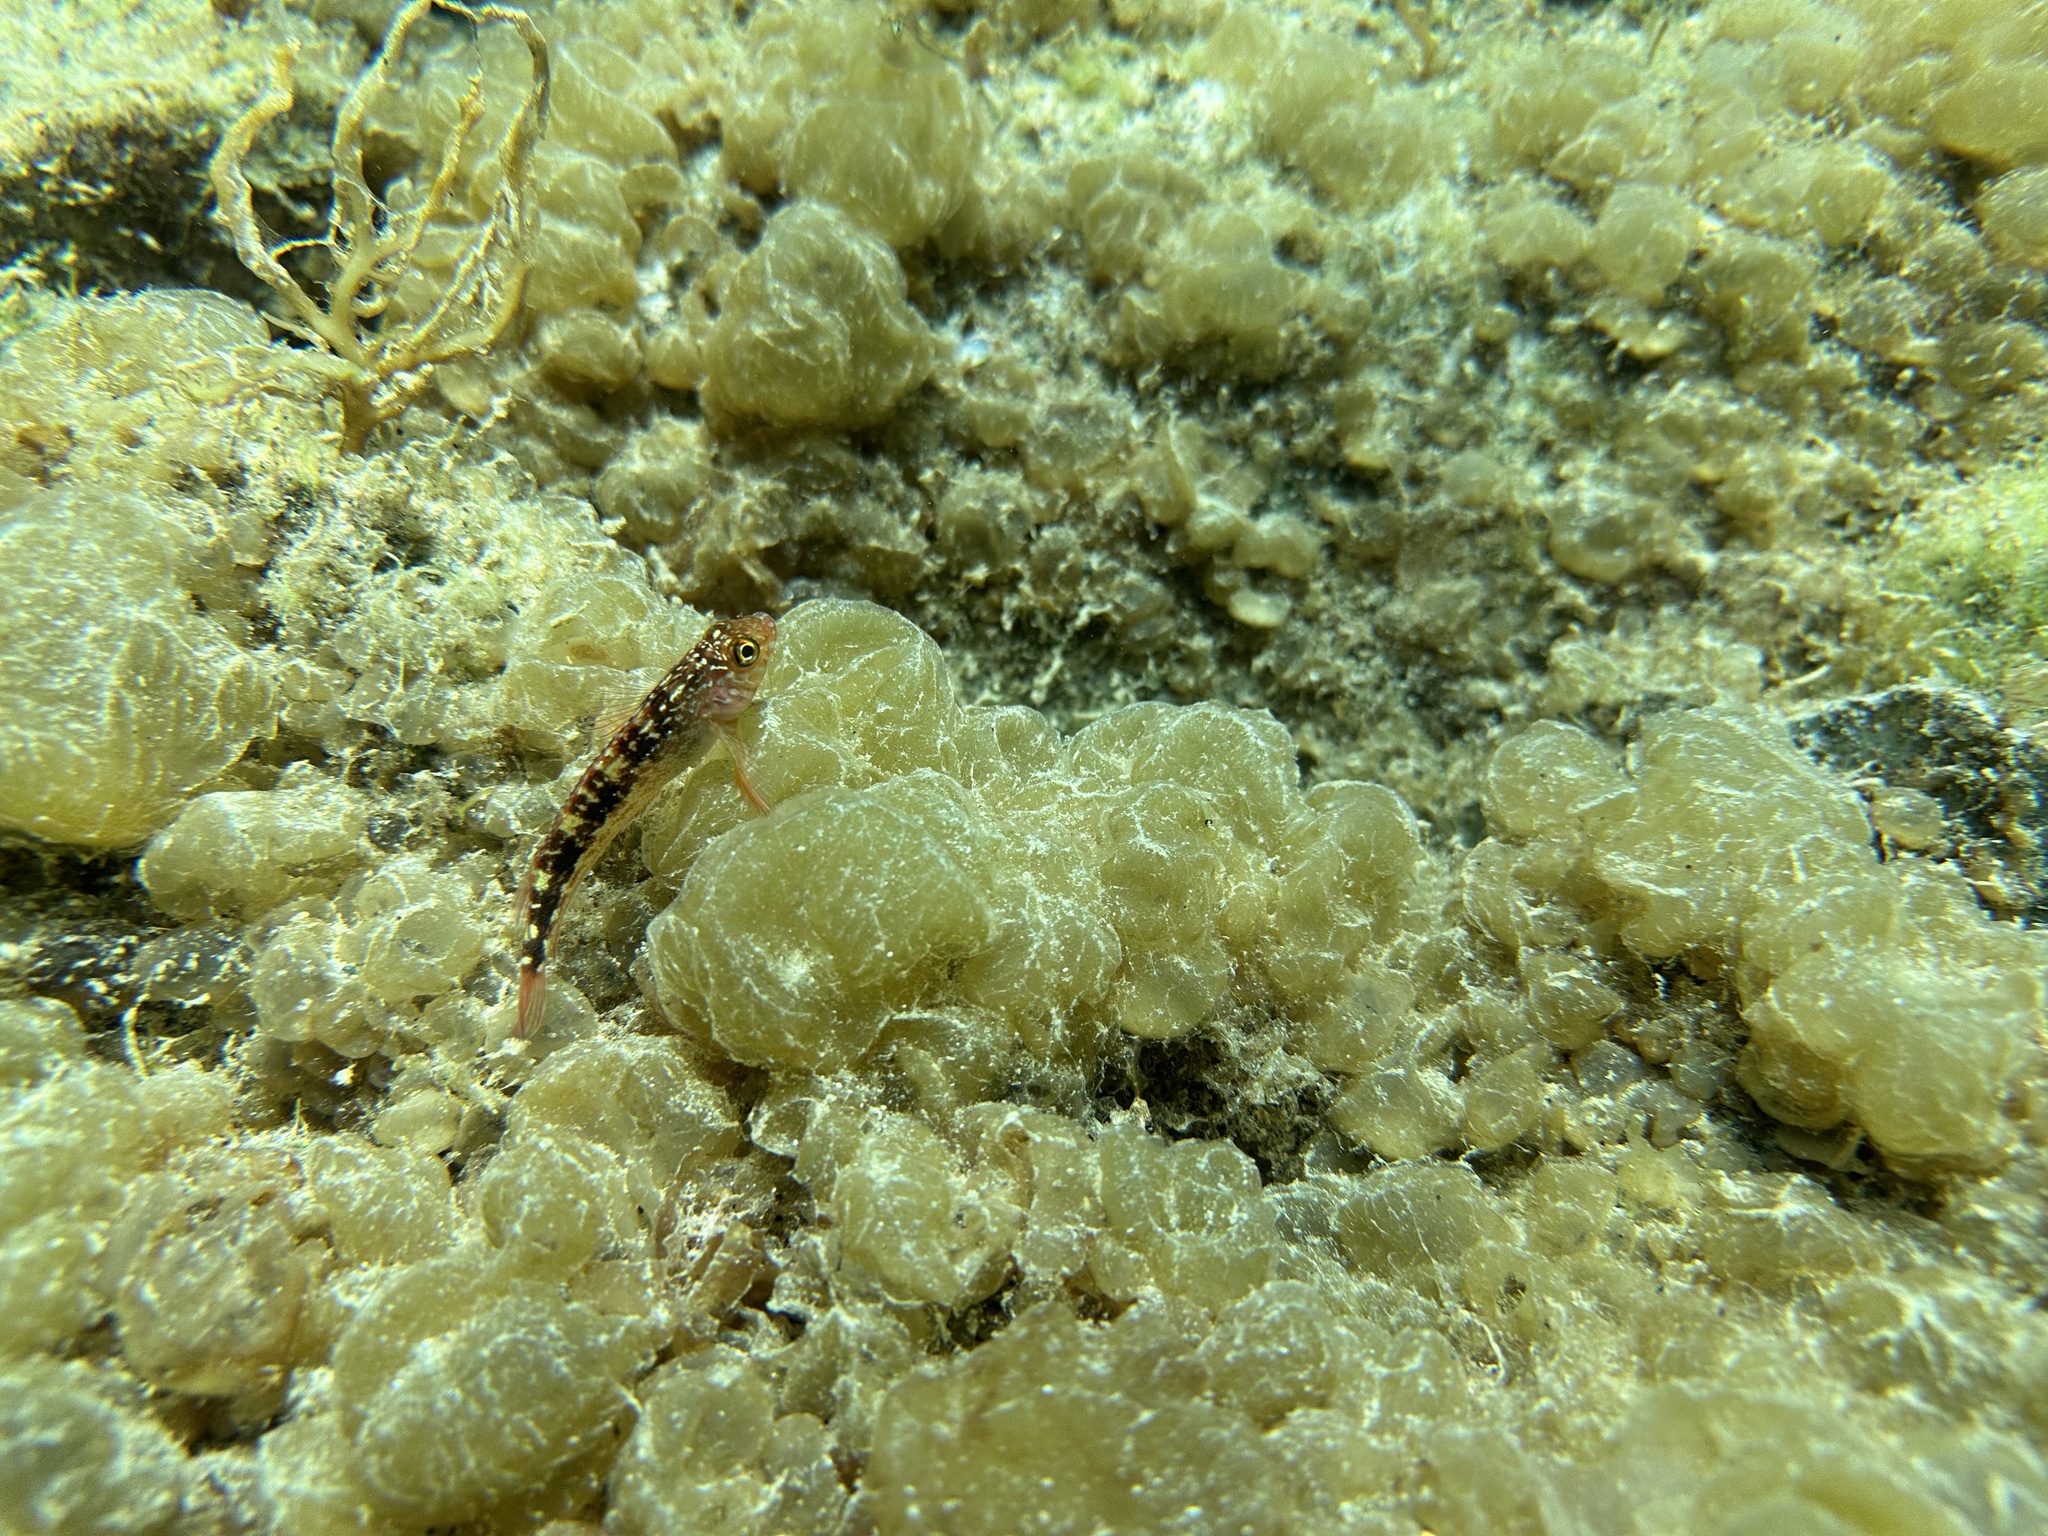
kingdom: Chromista
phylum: Ochrophyta
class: Phaeophyceae
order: Ectocarpales
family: Chordariaceae
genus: Leathesia
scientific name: Leathesia marina
